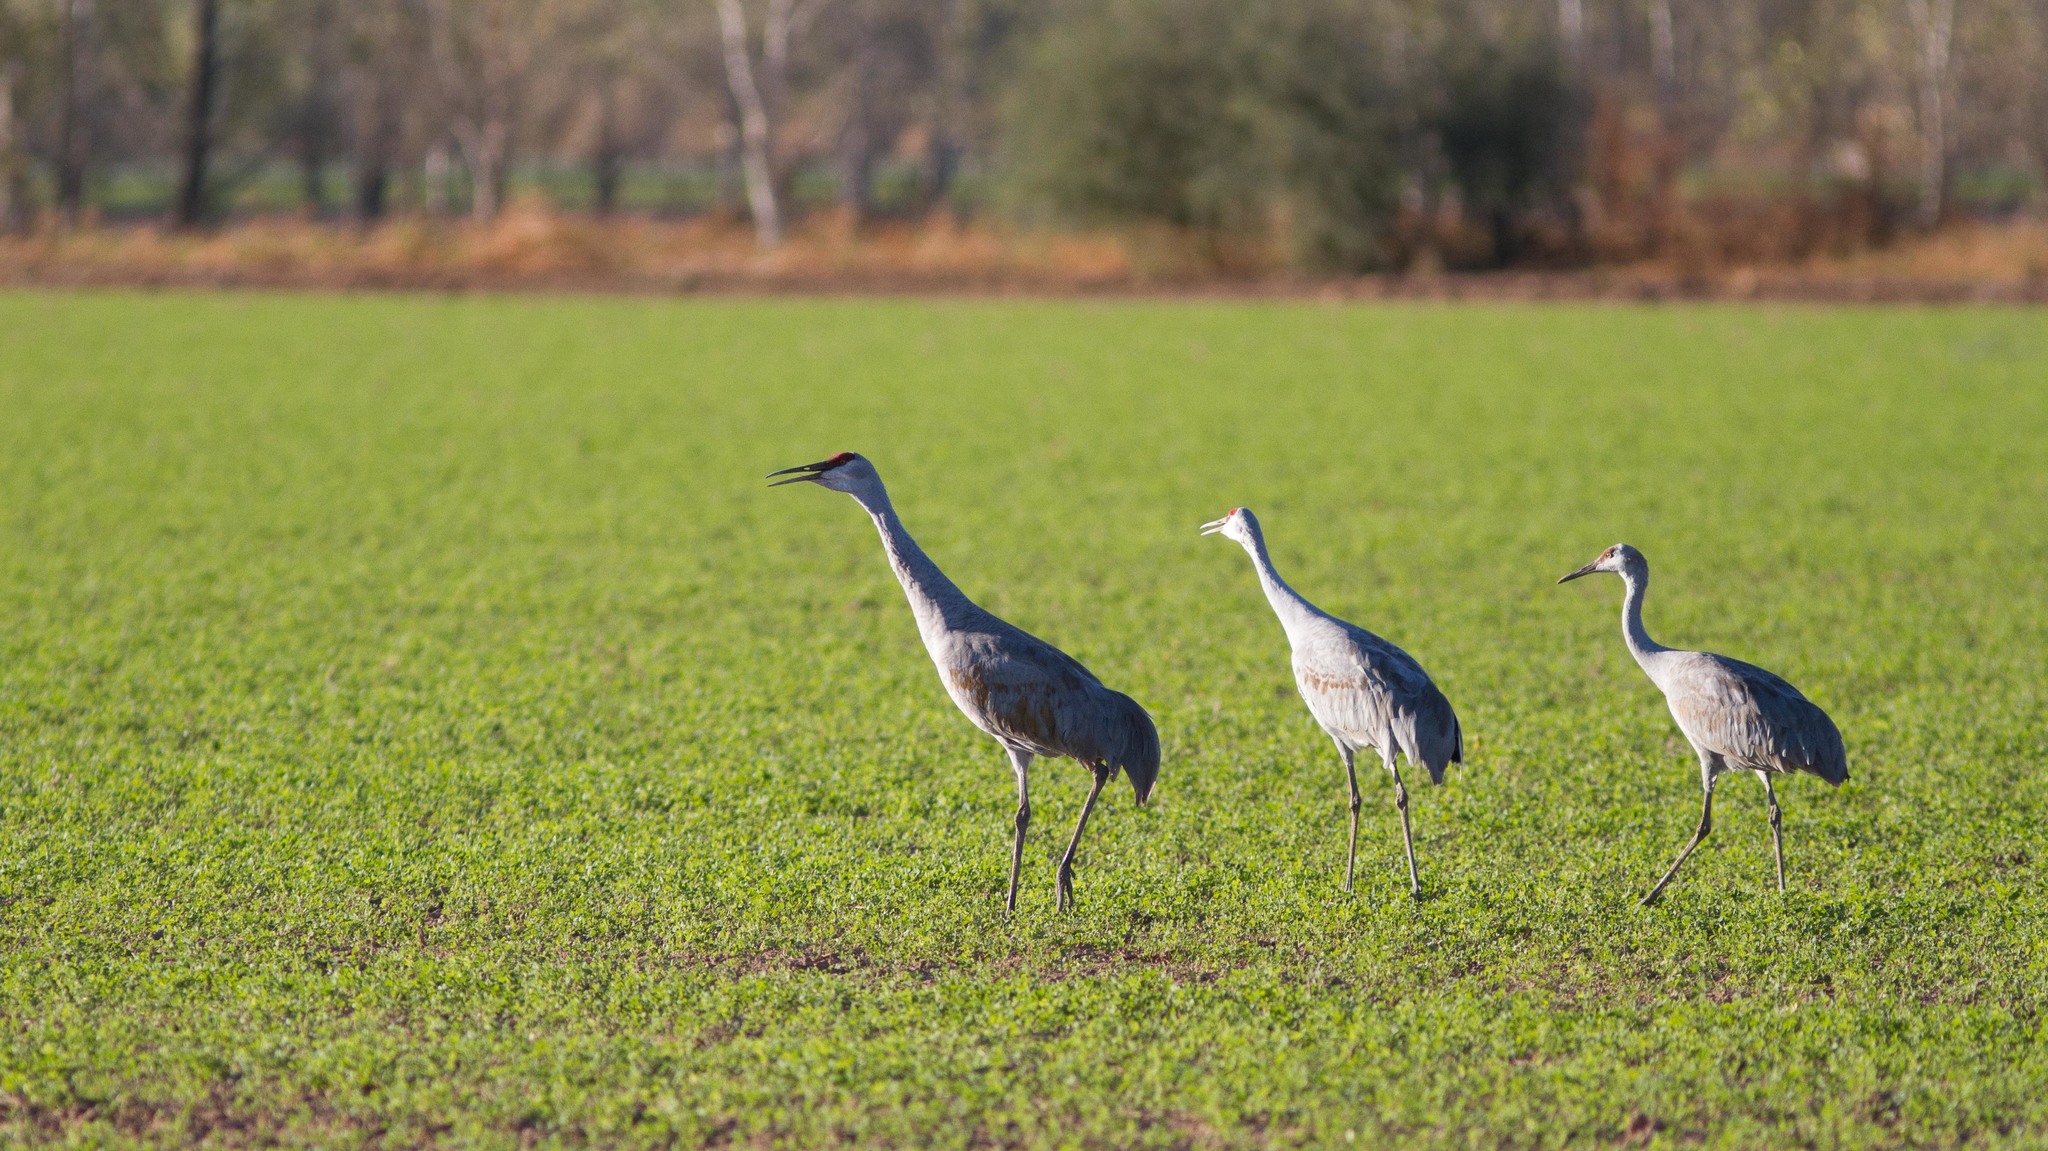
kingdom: Animalia
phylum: Chordata
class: Aves
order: Gruiformes
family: Gruidae
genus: Grus
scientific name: Grus canadensis
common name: Sandhill crane
